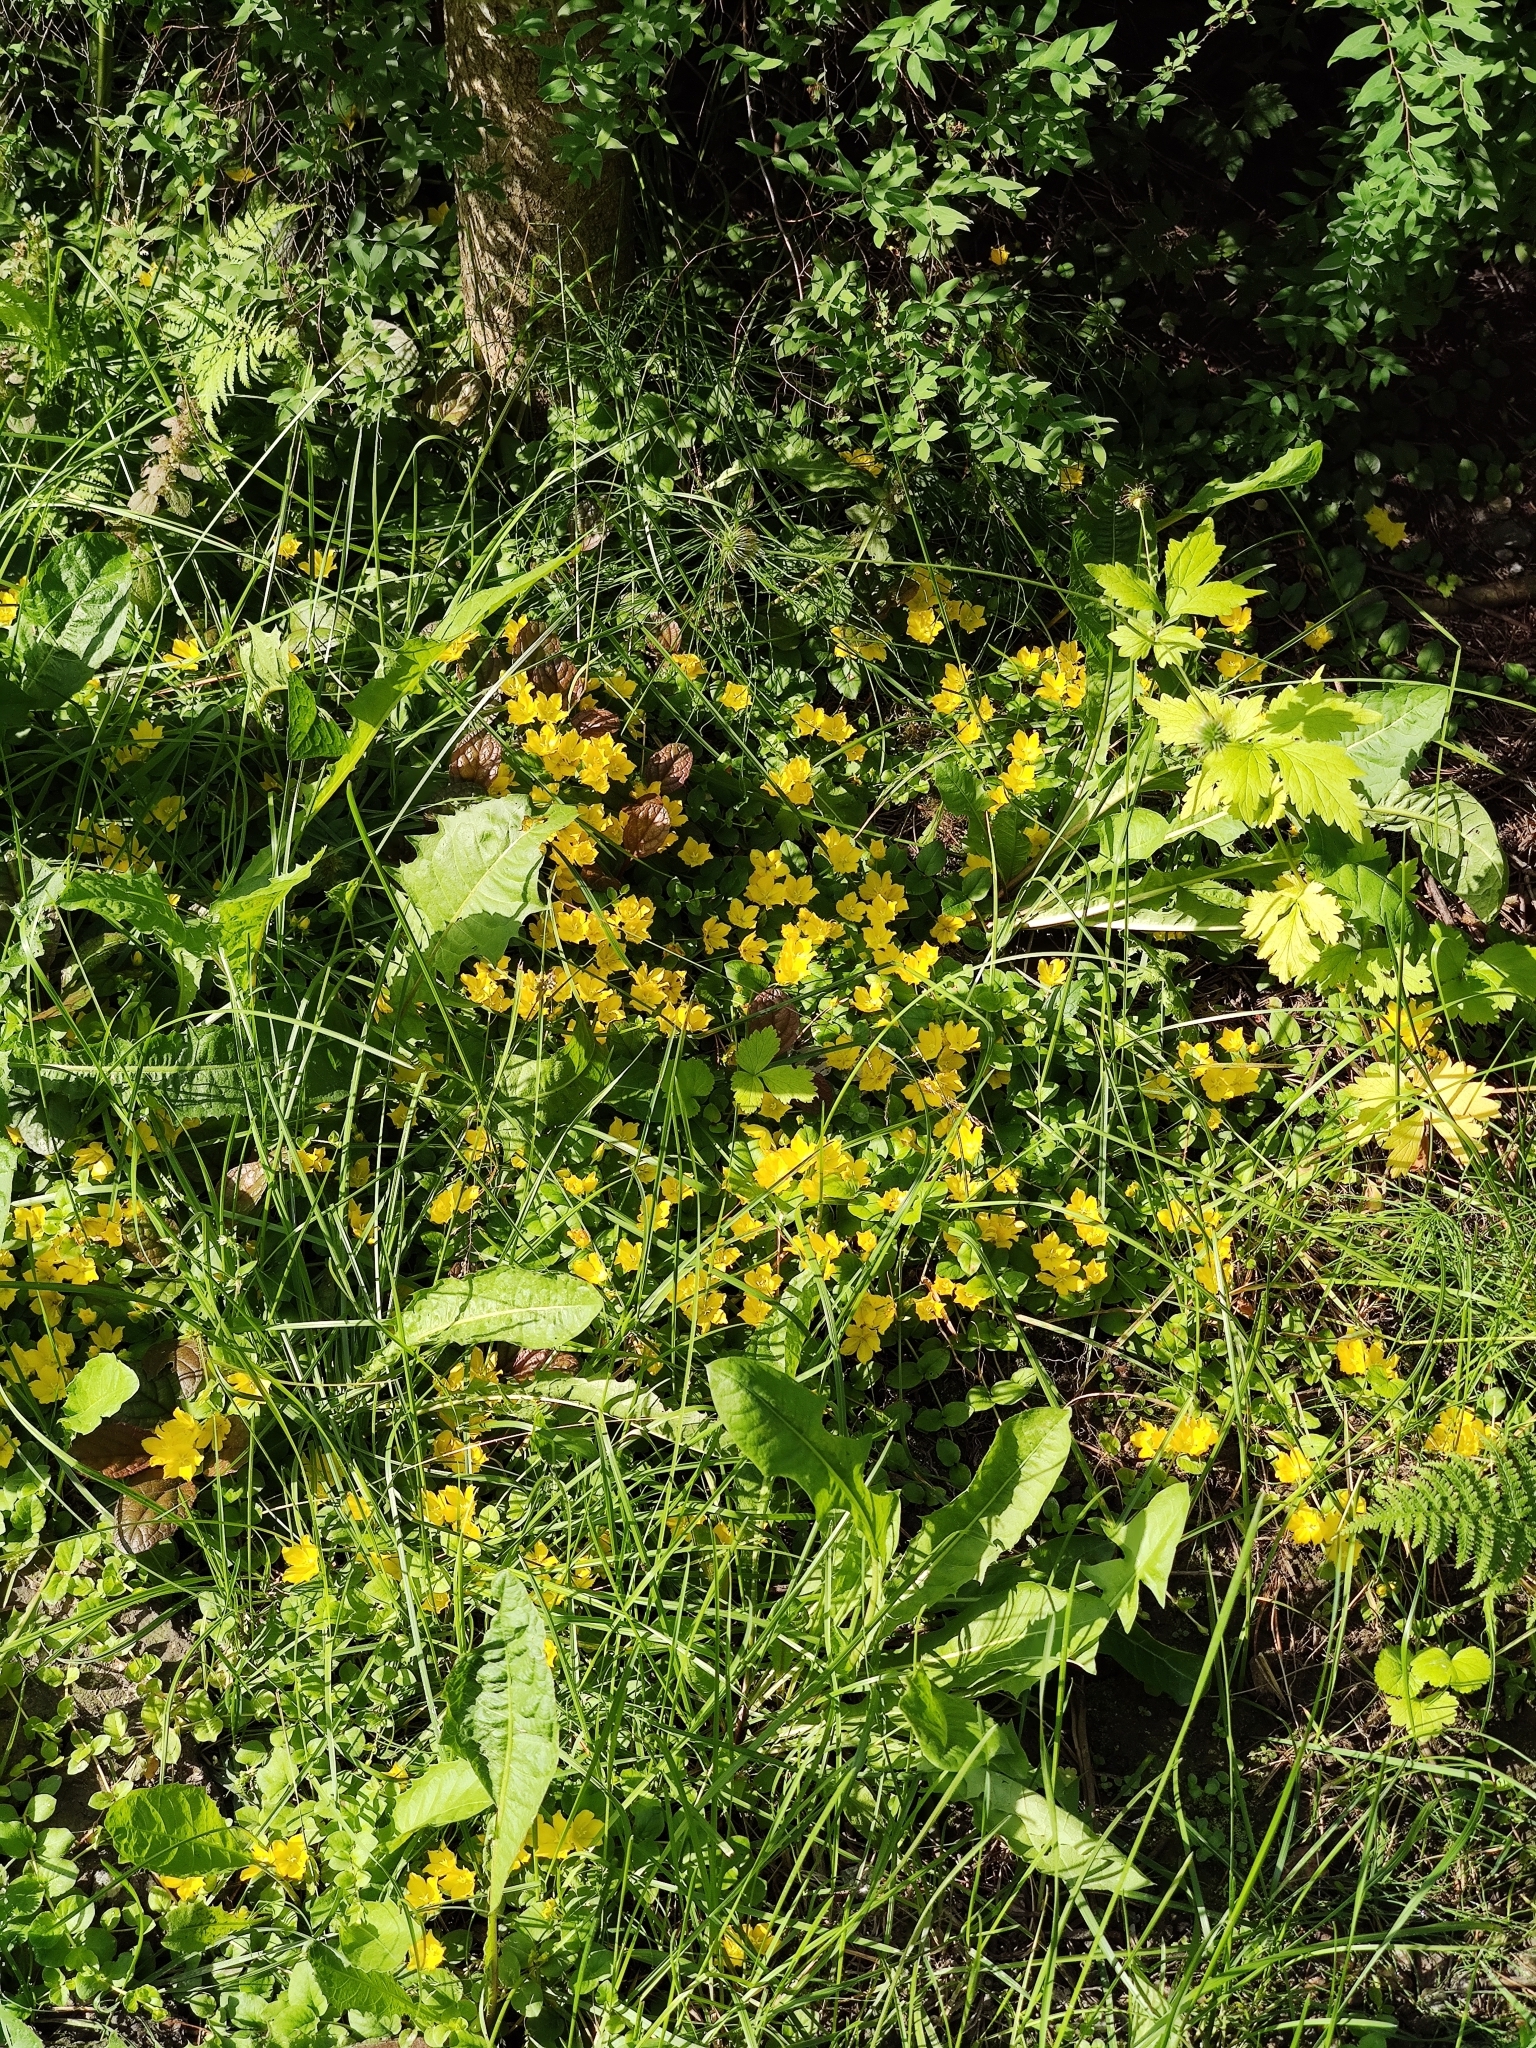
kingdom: Plantae
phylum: Tracheophyta
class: Magnoliopsida
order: Ericales
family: Primulaceae
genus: Lysimachia
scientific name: Lysimachia nummularia
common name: Moneywort
